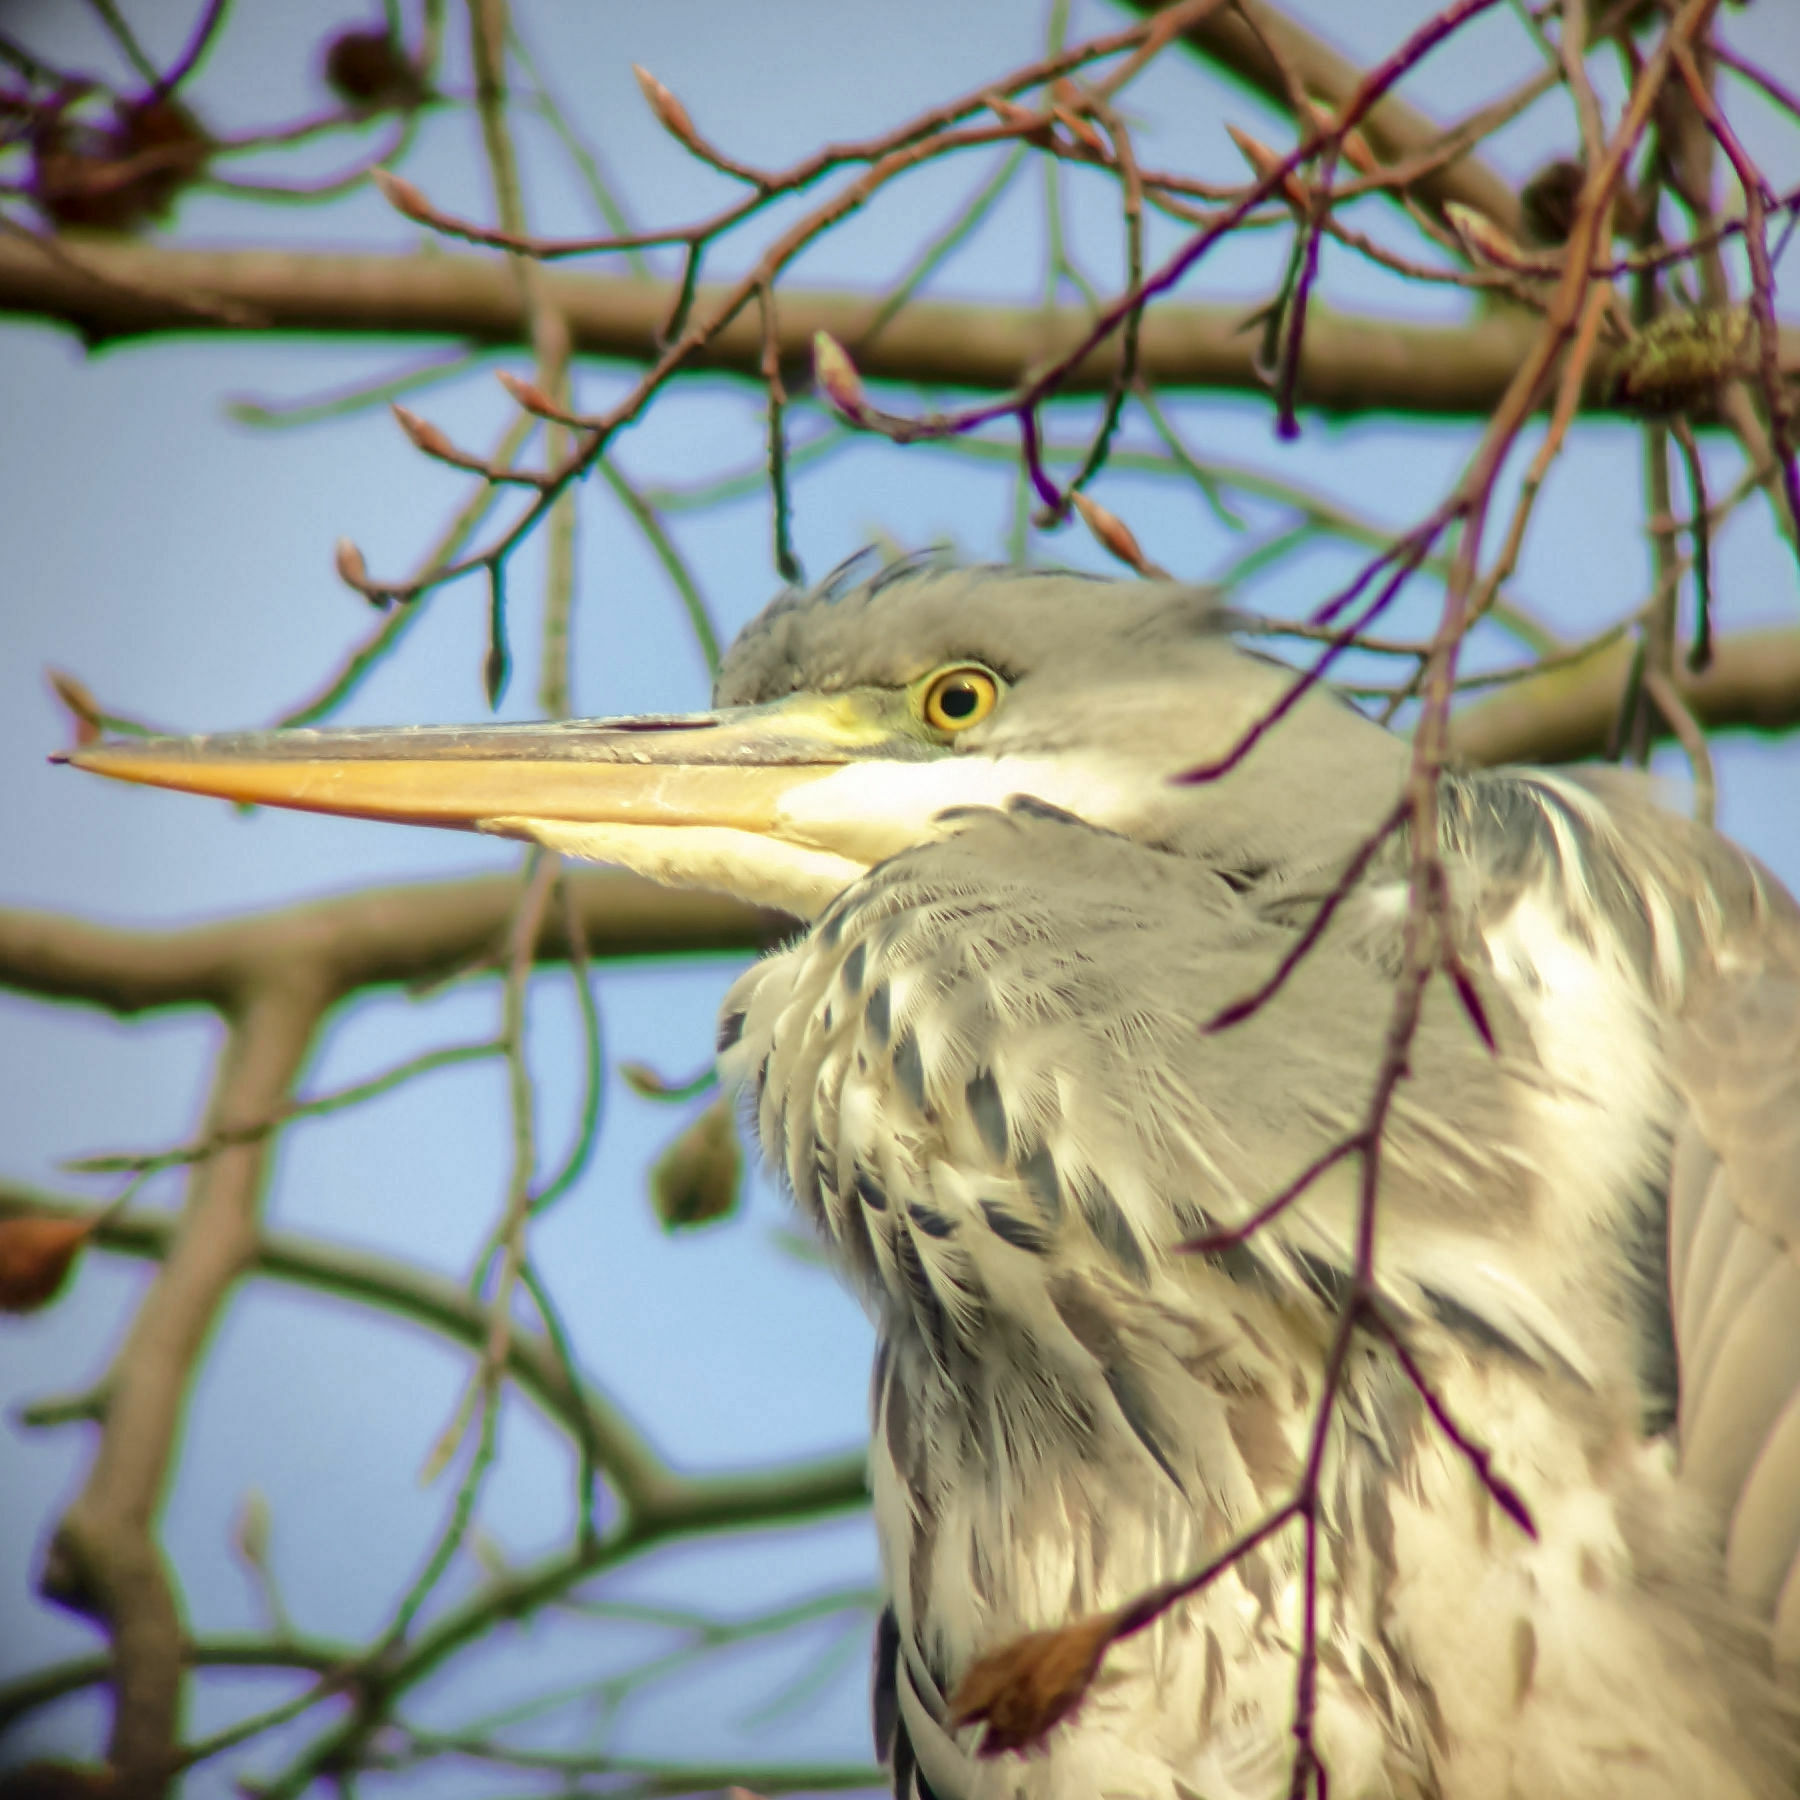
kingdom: Animalia
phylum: Chordata
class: Aves
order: Pelecaniformes
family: Ardeidae
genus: Ardea
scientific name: Ardea cinerea
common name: Grey heron
